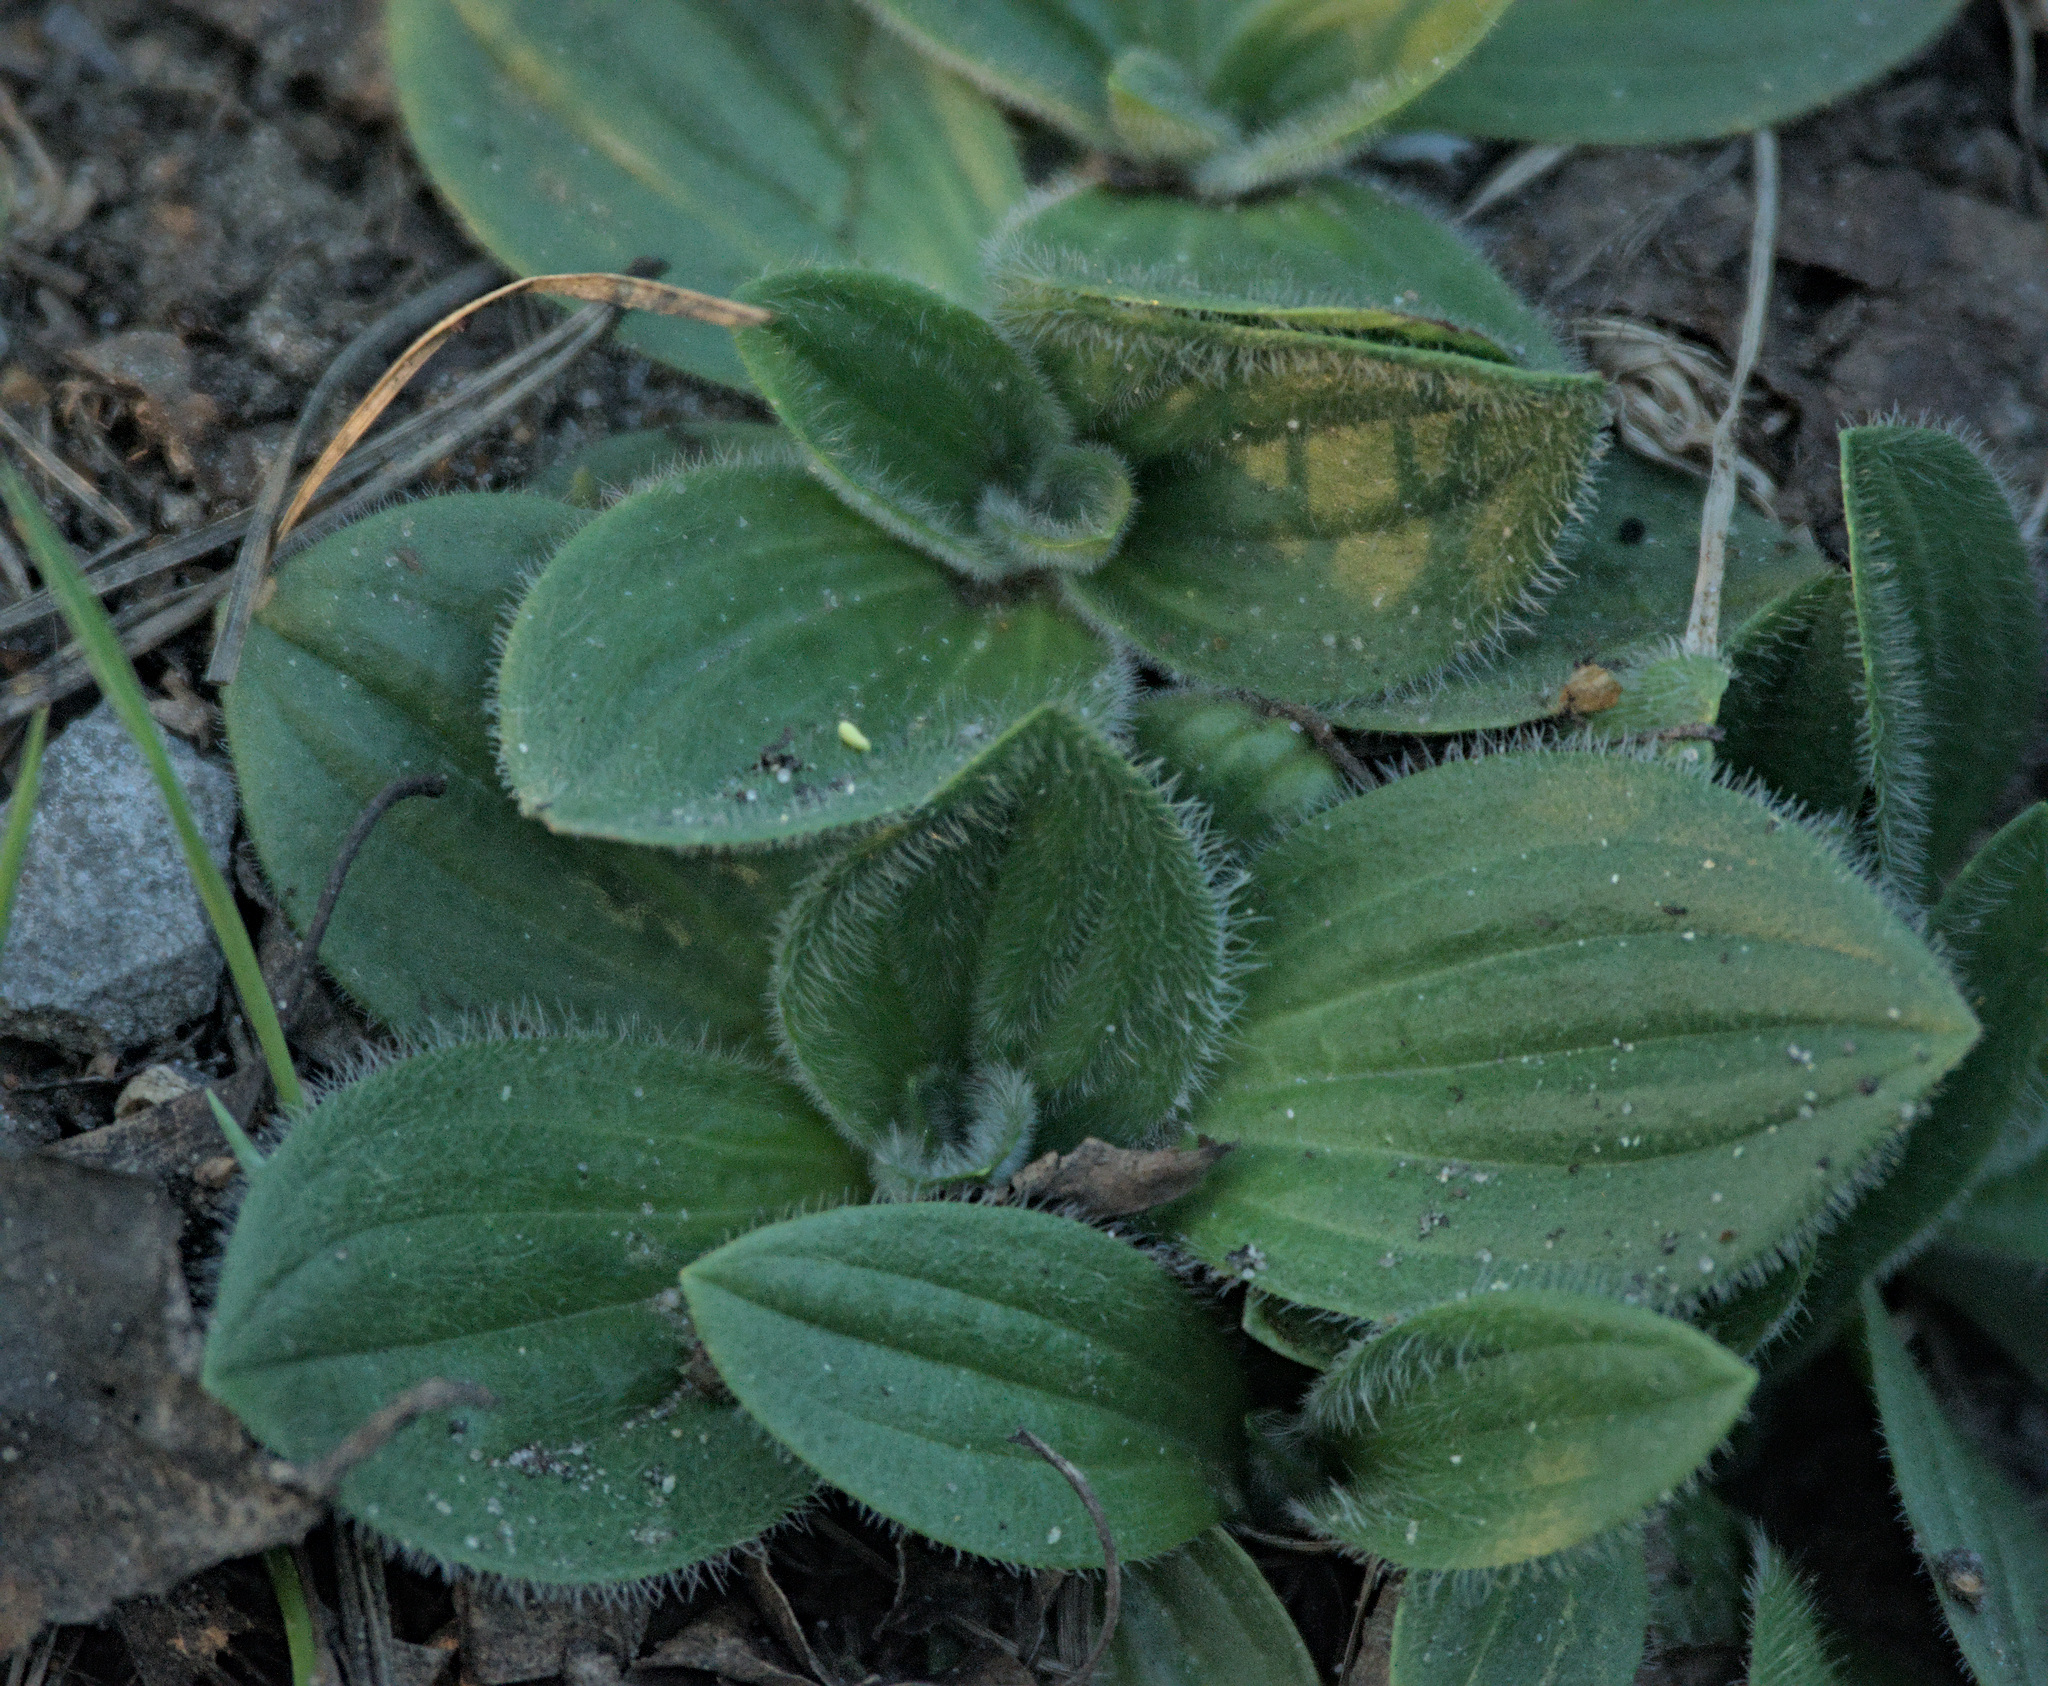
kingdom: Plantae
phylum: Tracheophyta
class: Magnoliopsida
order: Lamiales
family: Plantaginaceae
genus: Plantago
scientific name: Plantago media
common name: Hoary plantain
